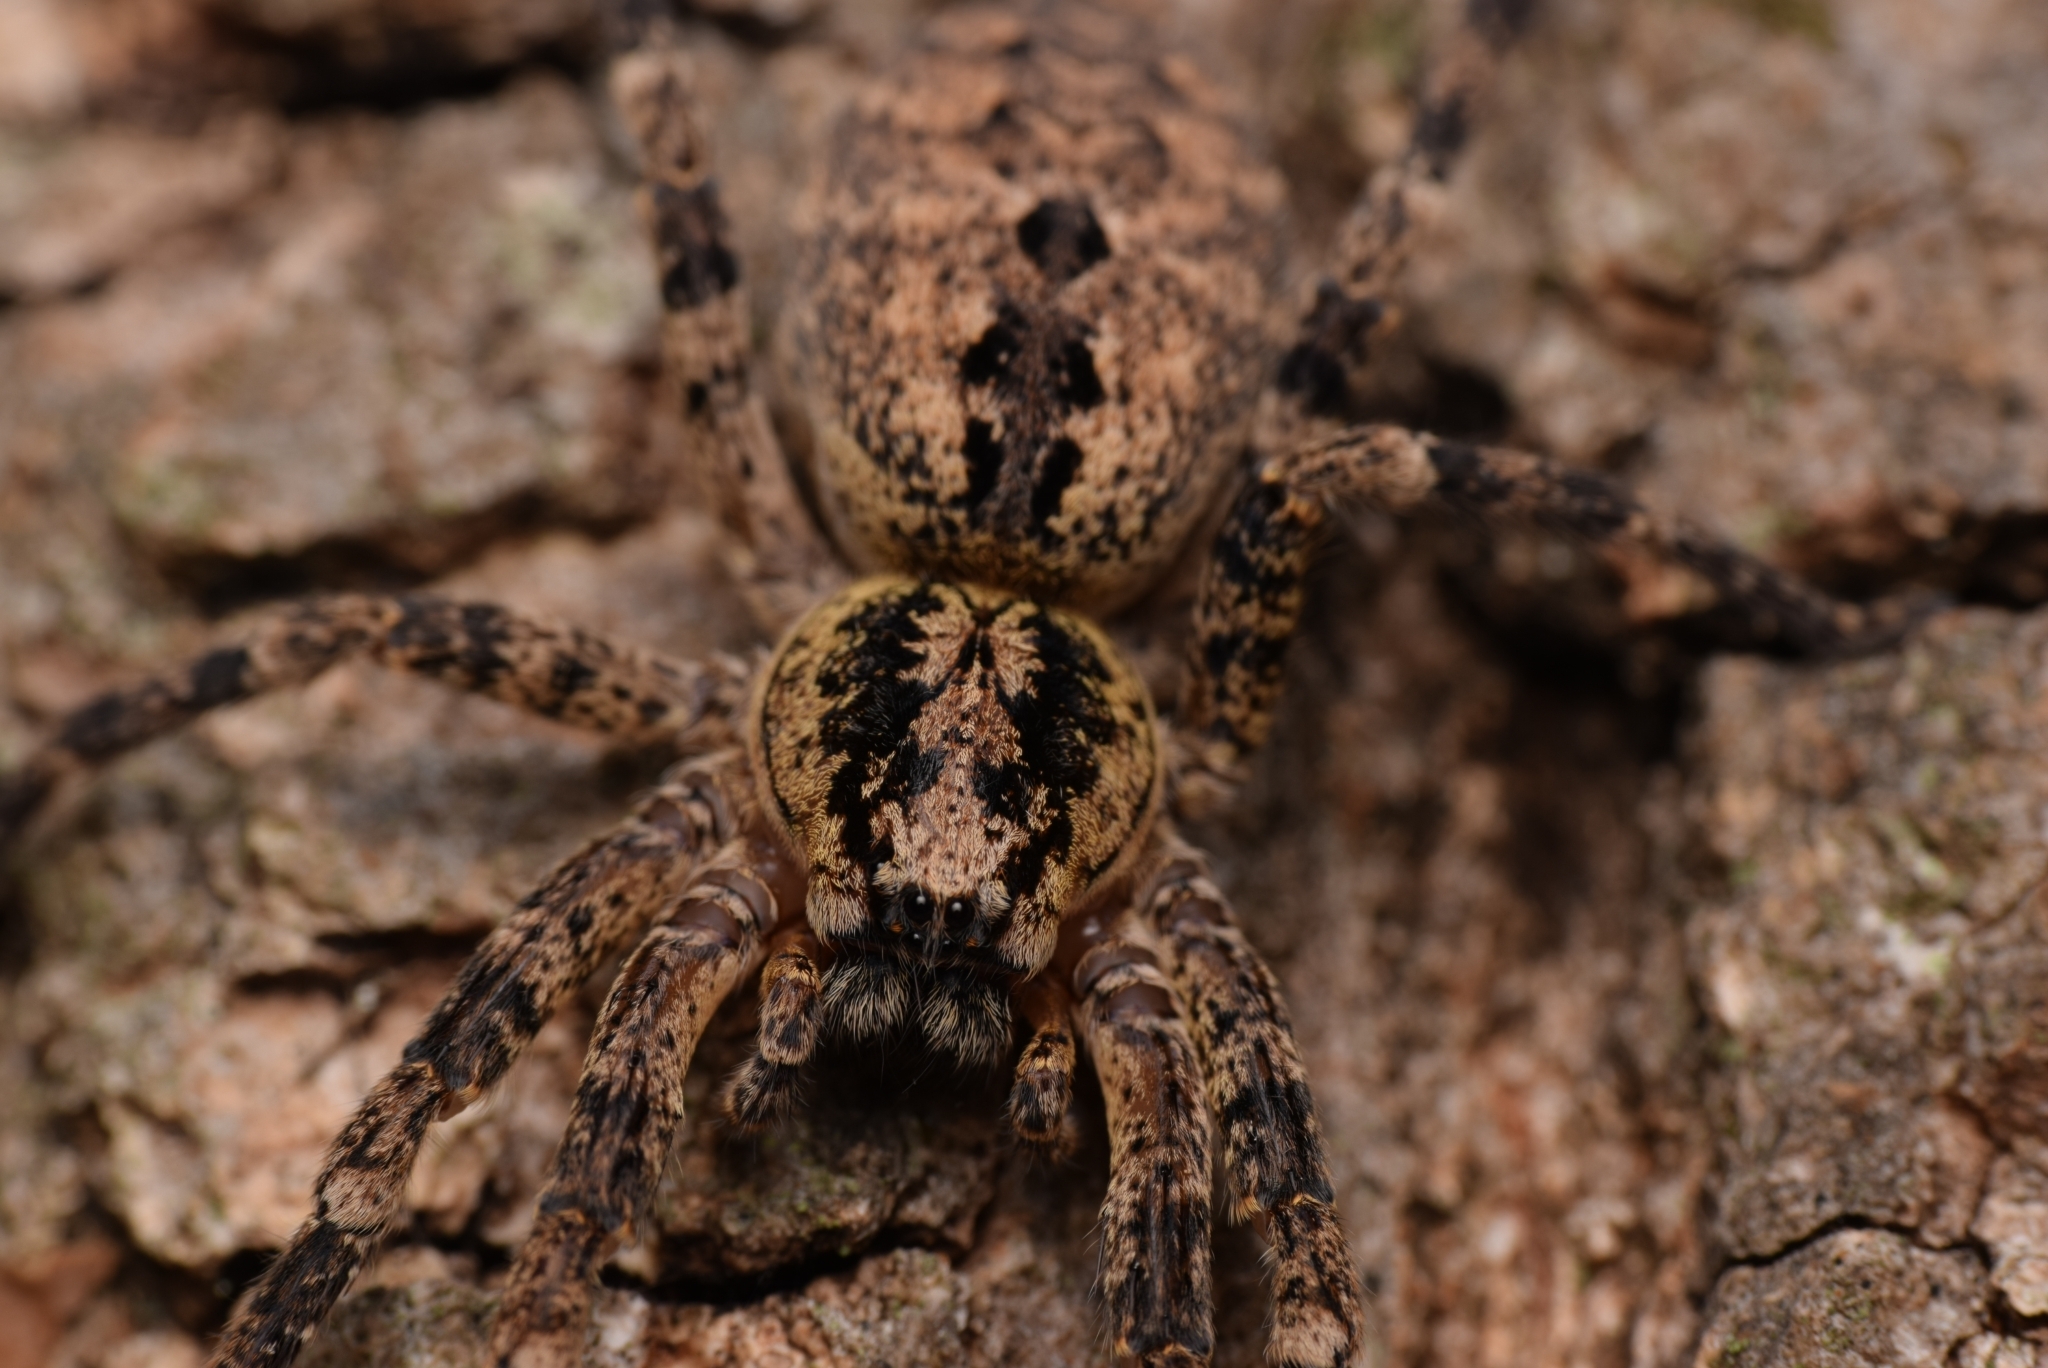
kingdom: Animalia
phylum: Arthropoda
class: Arachnida
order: Araneae
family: Zoropsidae
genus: Zoropsis
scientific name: Zoropsis spinimana
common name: Zoropsid spider
